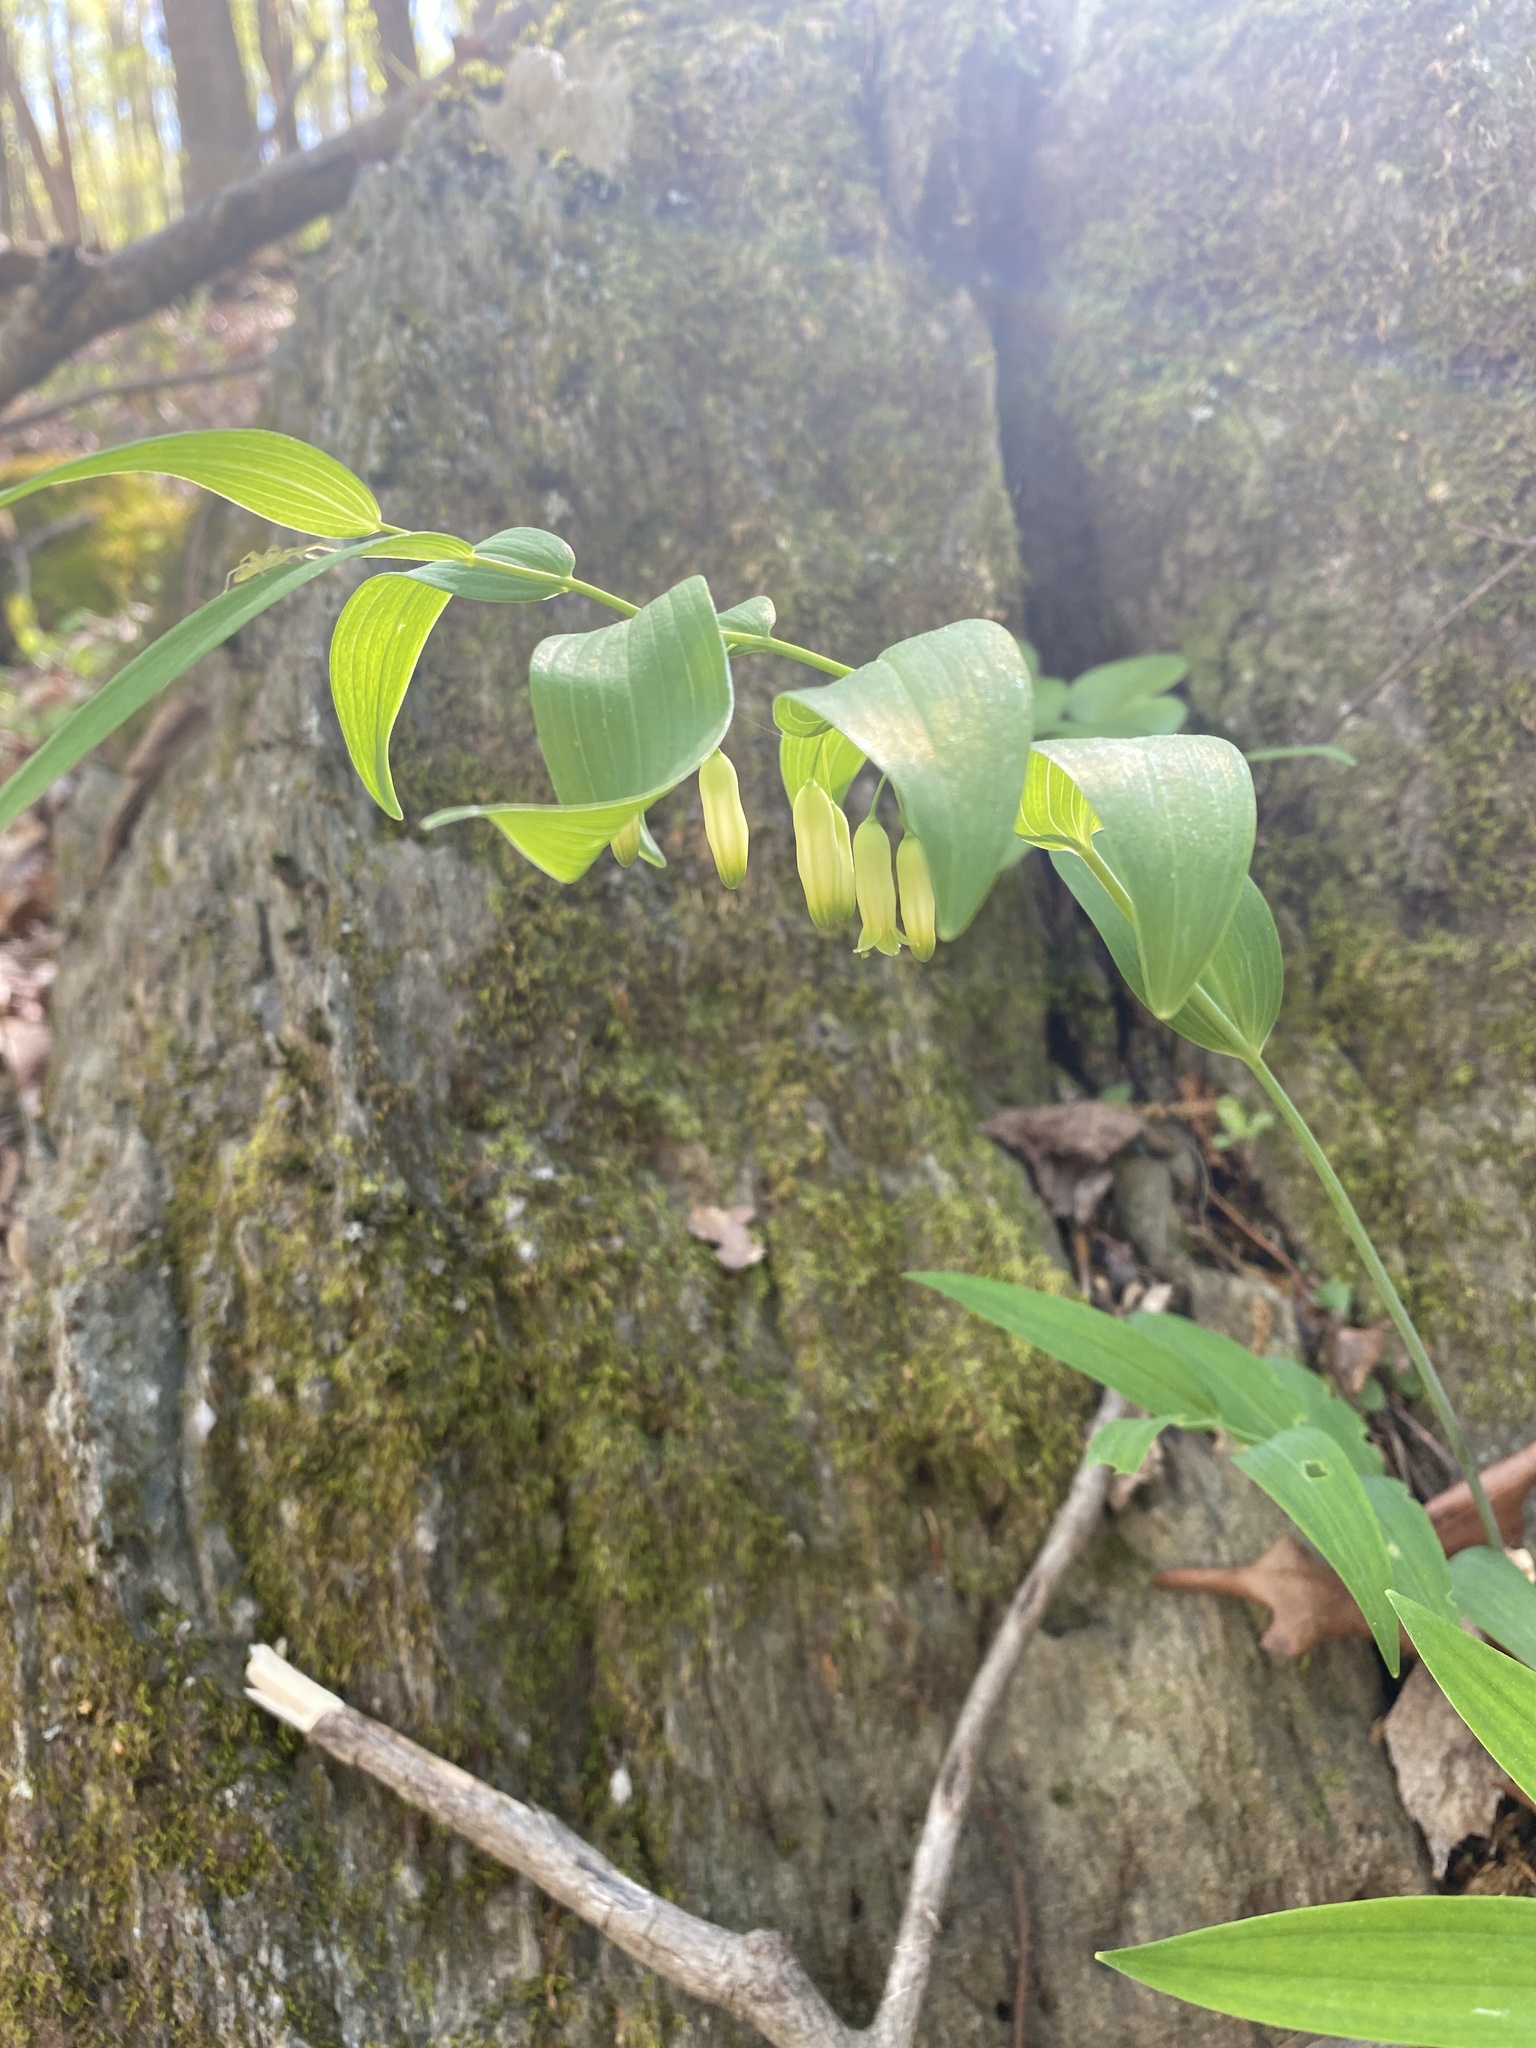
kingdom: Plantae
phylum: Tracheophyta
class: Liliopsida
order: Asparagales
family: Asparagaceae
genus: Polygonatum
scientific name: Polygonatum biflorum
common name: American solomon's-seal
